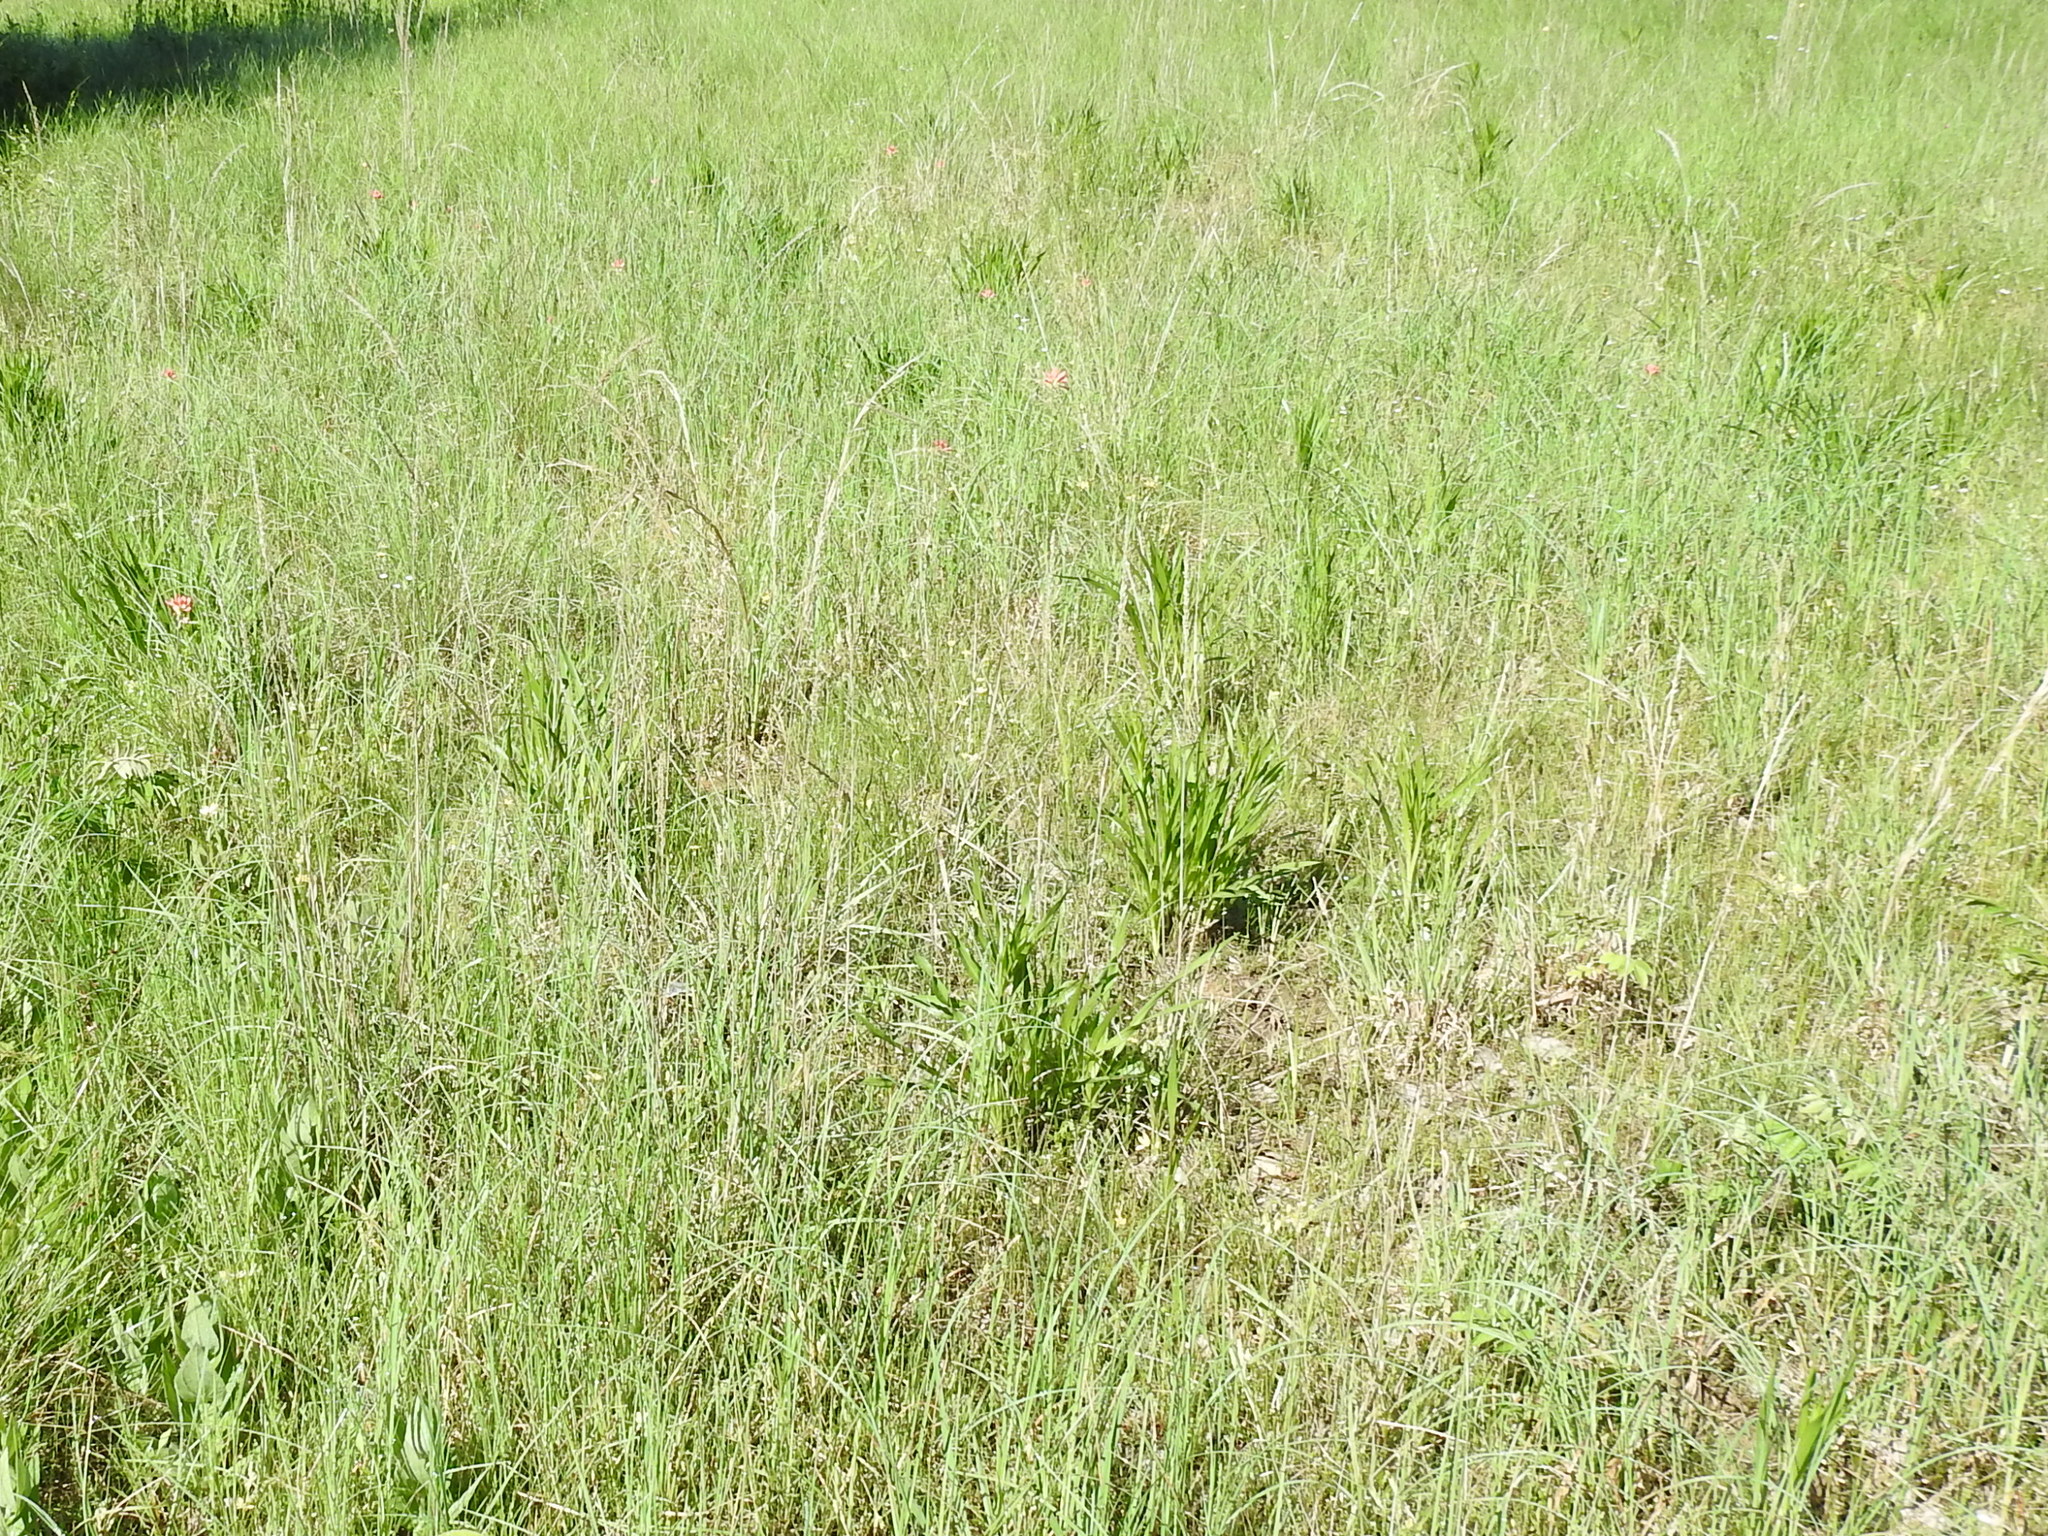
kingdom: Plantae
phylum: Tracheophyta
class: Liliopsida
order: Poales
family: Poaceae
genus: Tridens
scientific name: Tridens strictus
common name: Long-spike tridens
